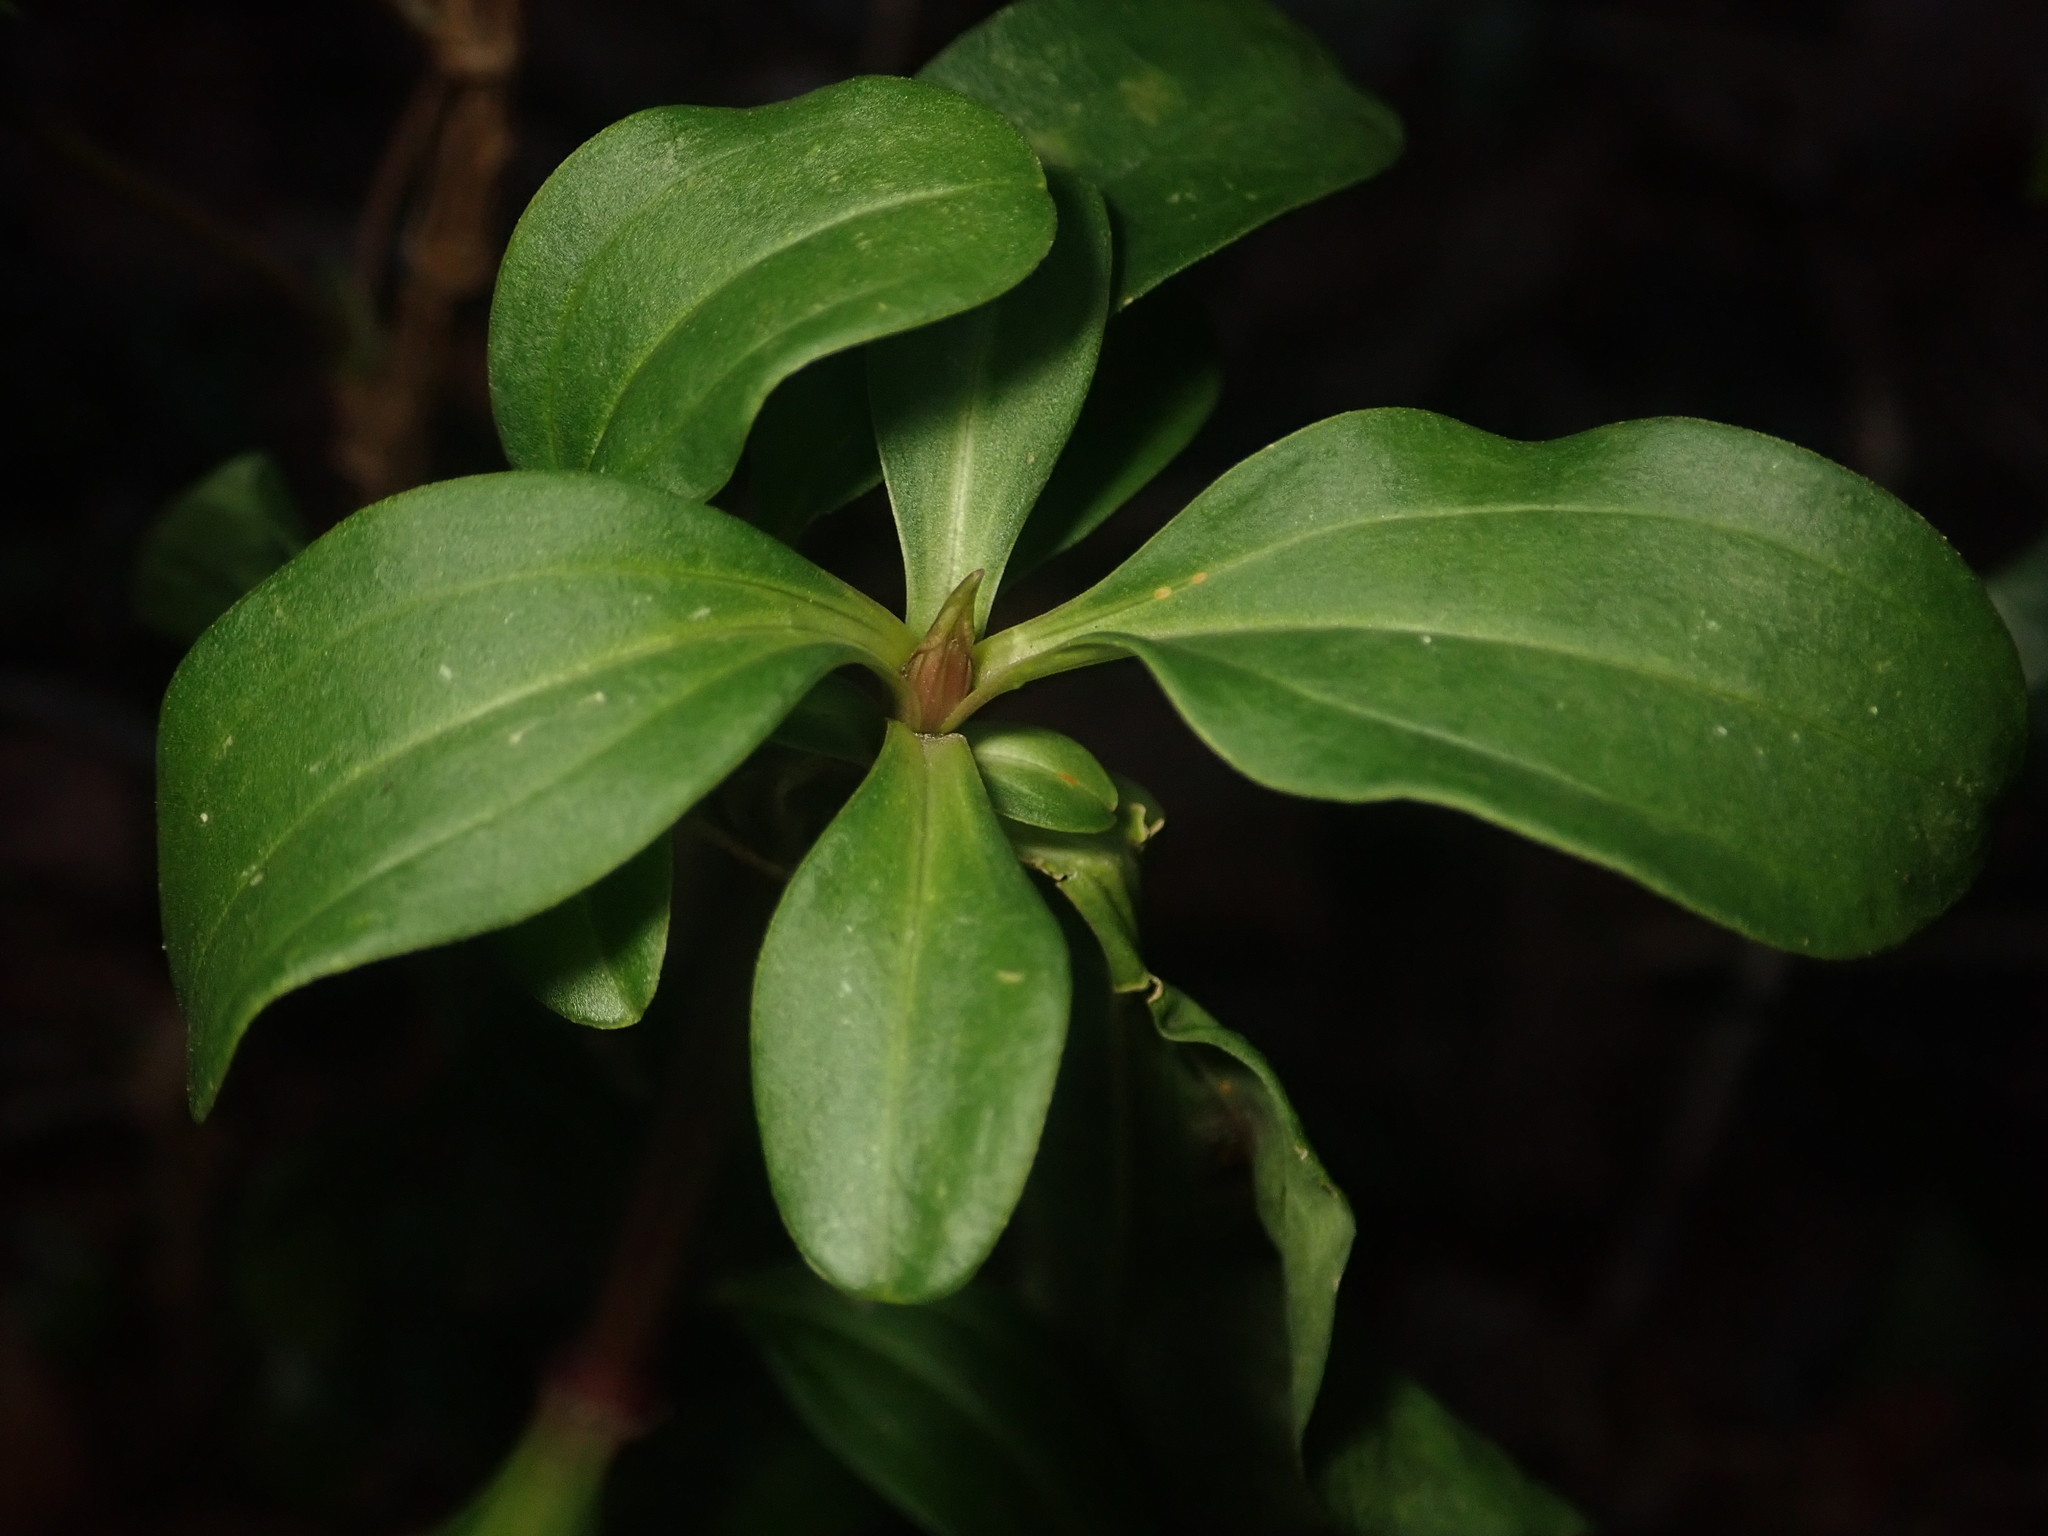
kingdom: Plantae
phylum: Tracheophyta
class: Magnoliopsida
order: Caryophyllales
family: Caryophyllaceae
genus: Saponaria
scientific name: Saponaria officinalis
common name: Soapwort
